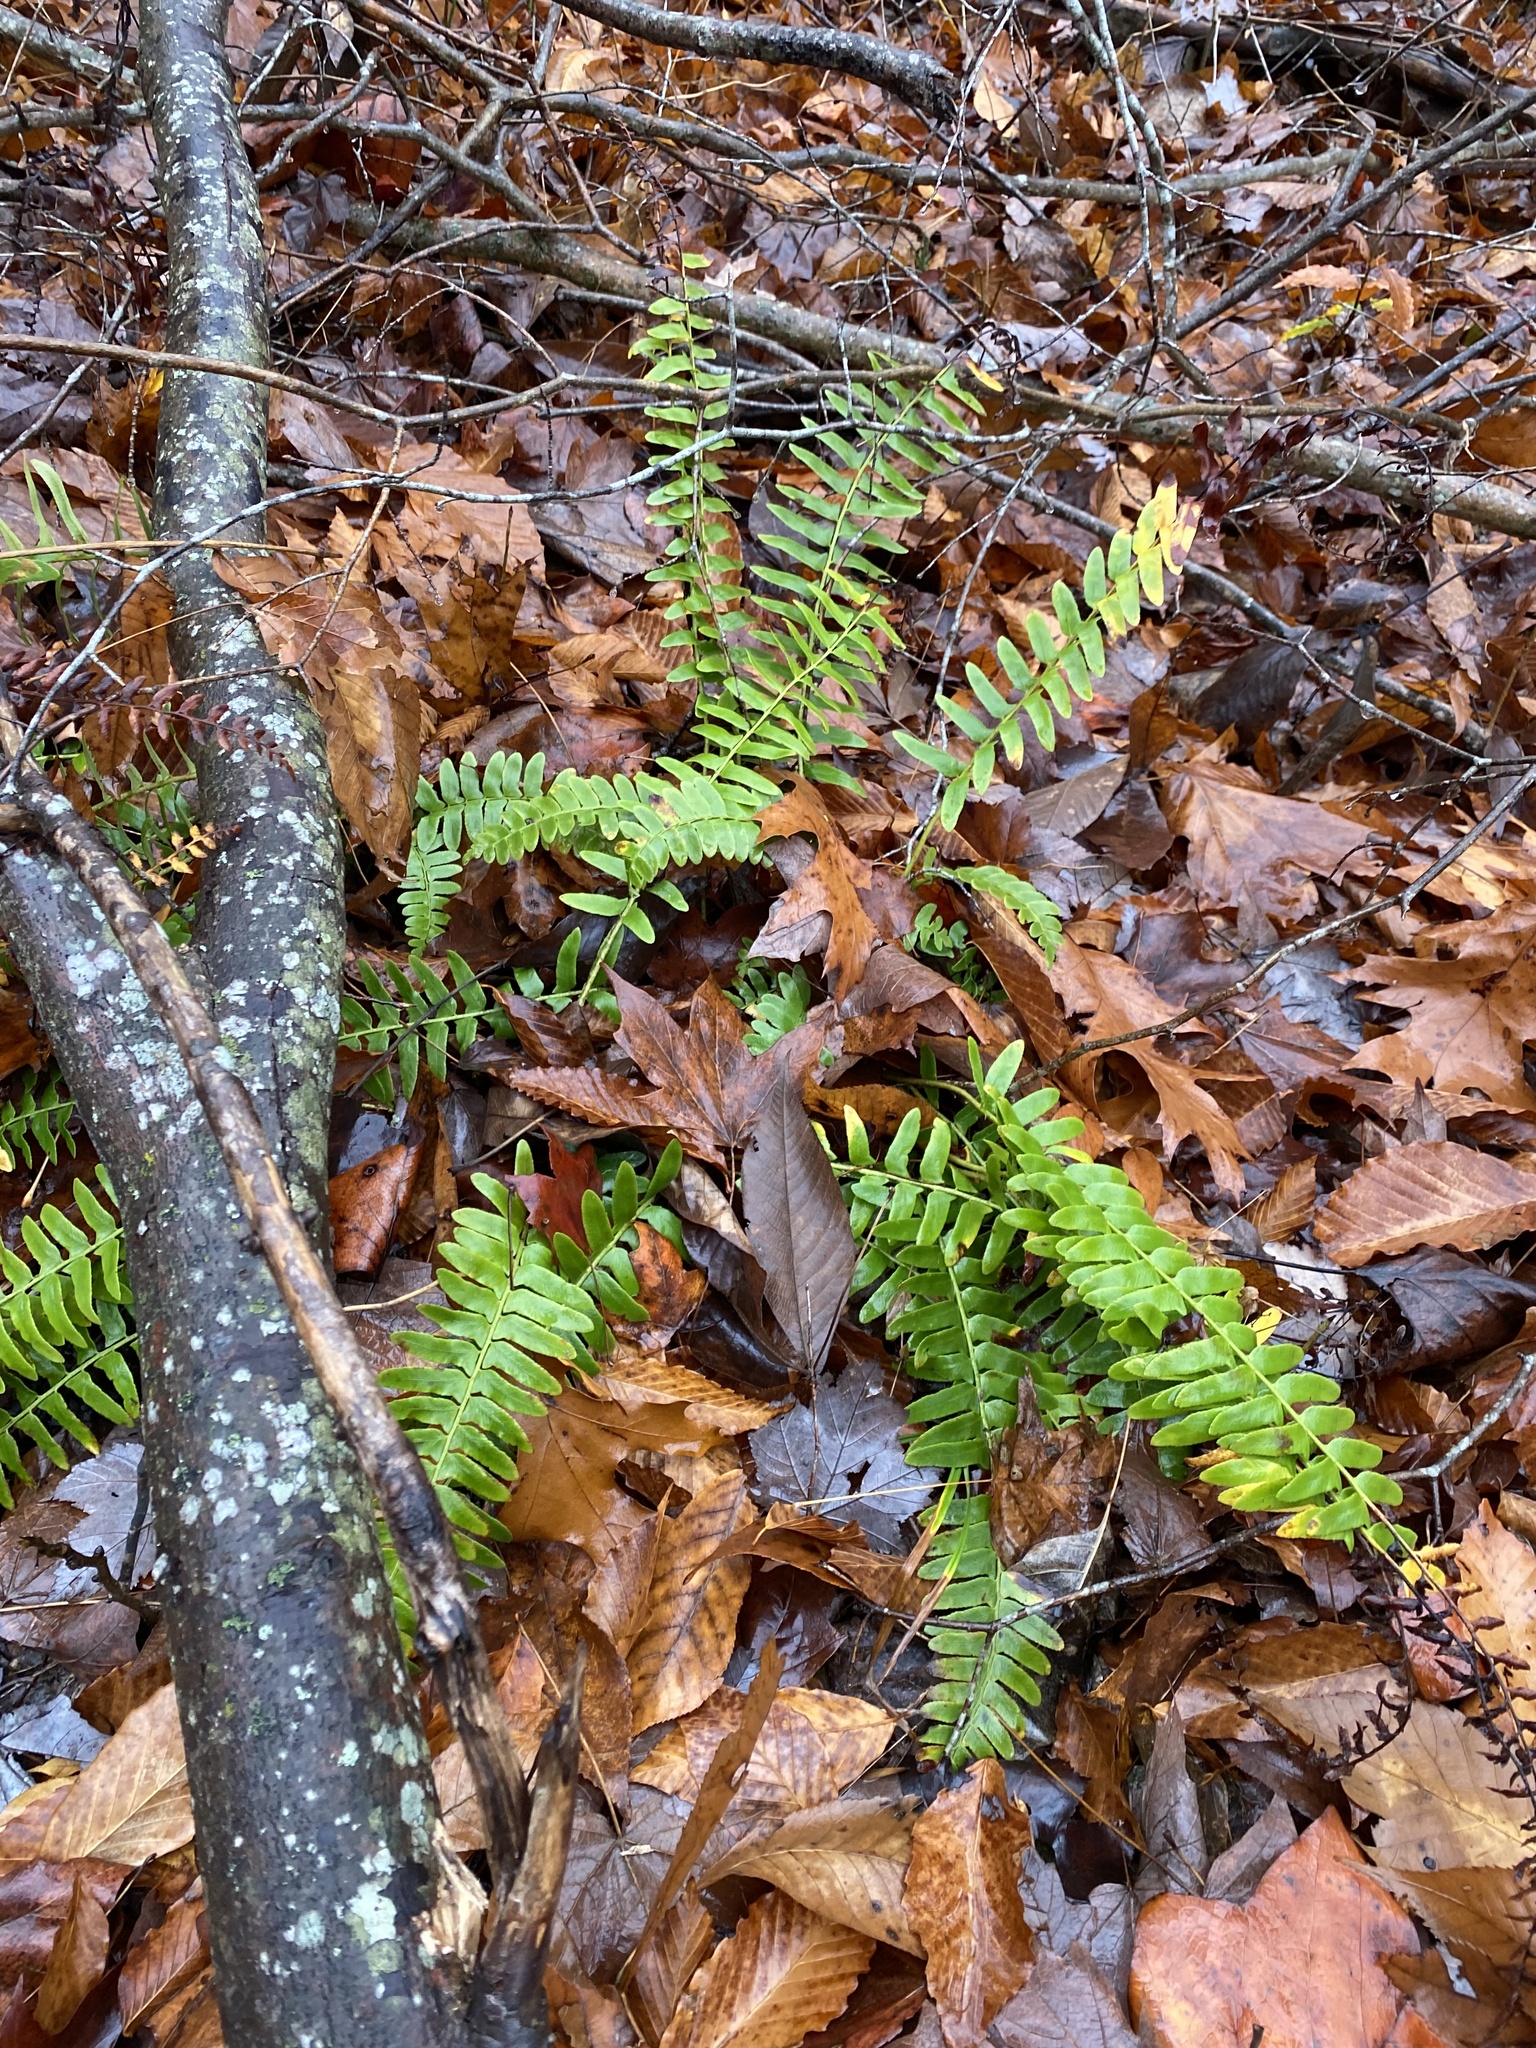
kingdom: Plantae
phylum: Tracheophyta
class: Polypodiopsida
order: Polypodiales
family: Dryopteridaceae
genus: Polystichum
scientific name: Polystichum acrostichoides
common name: Christmas fern
